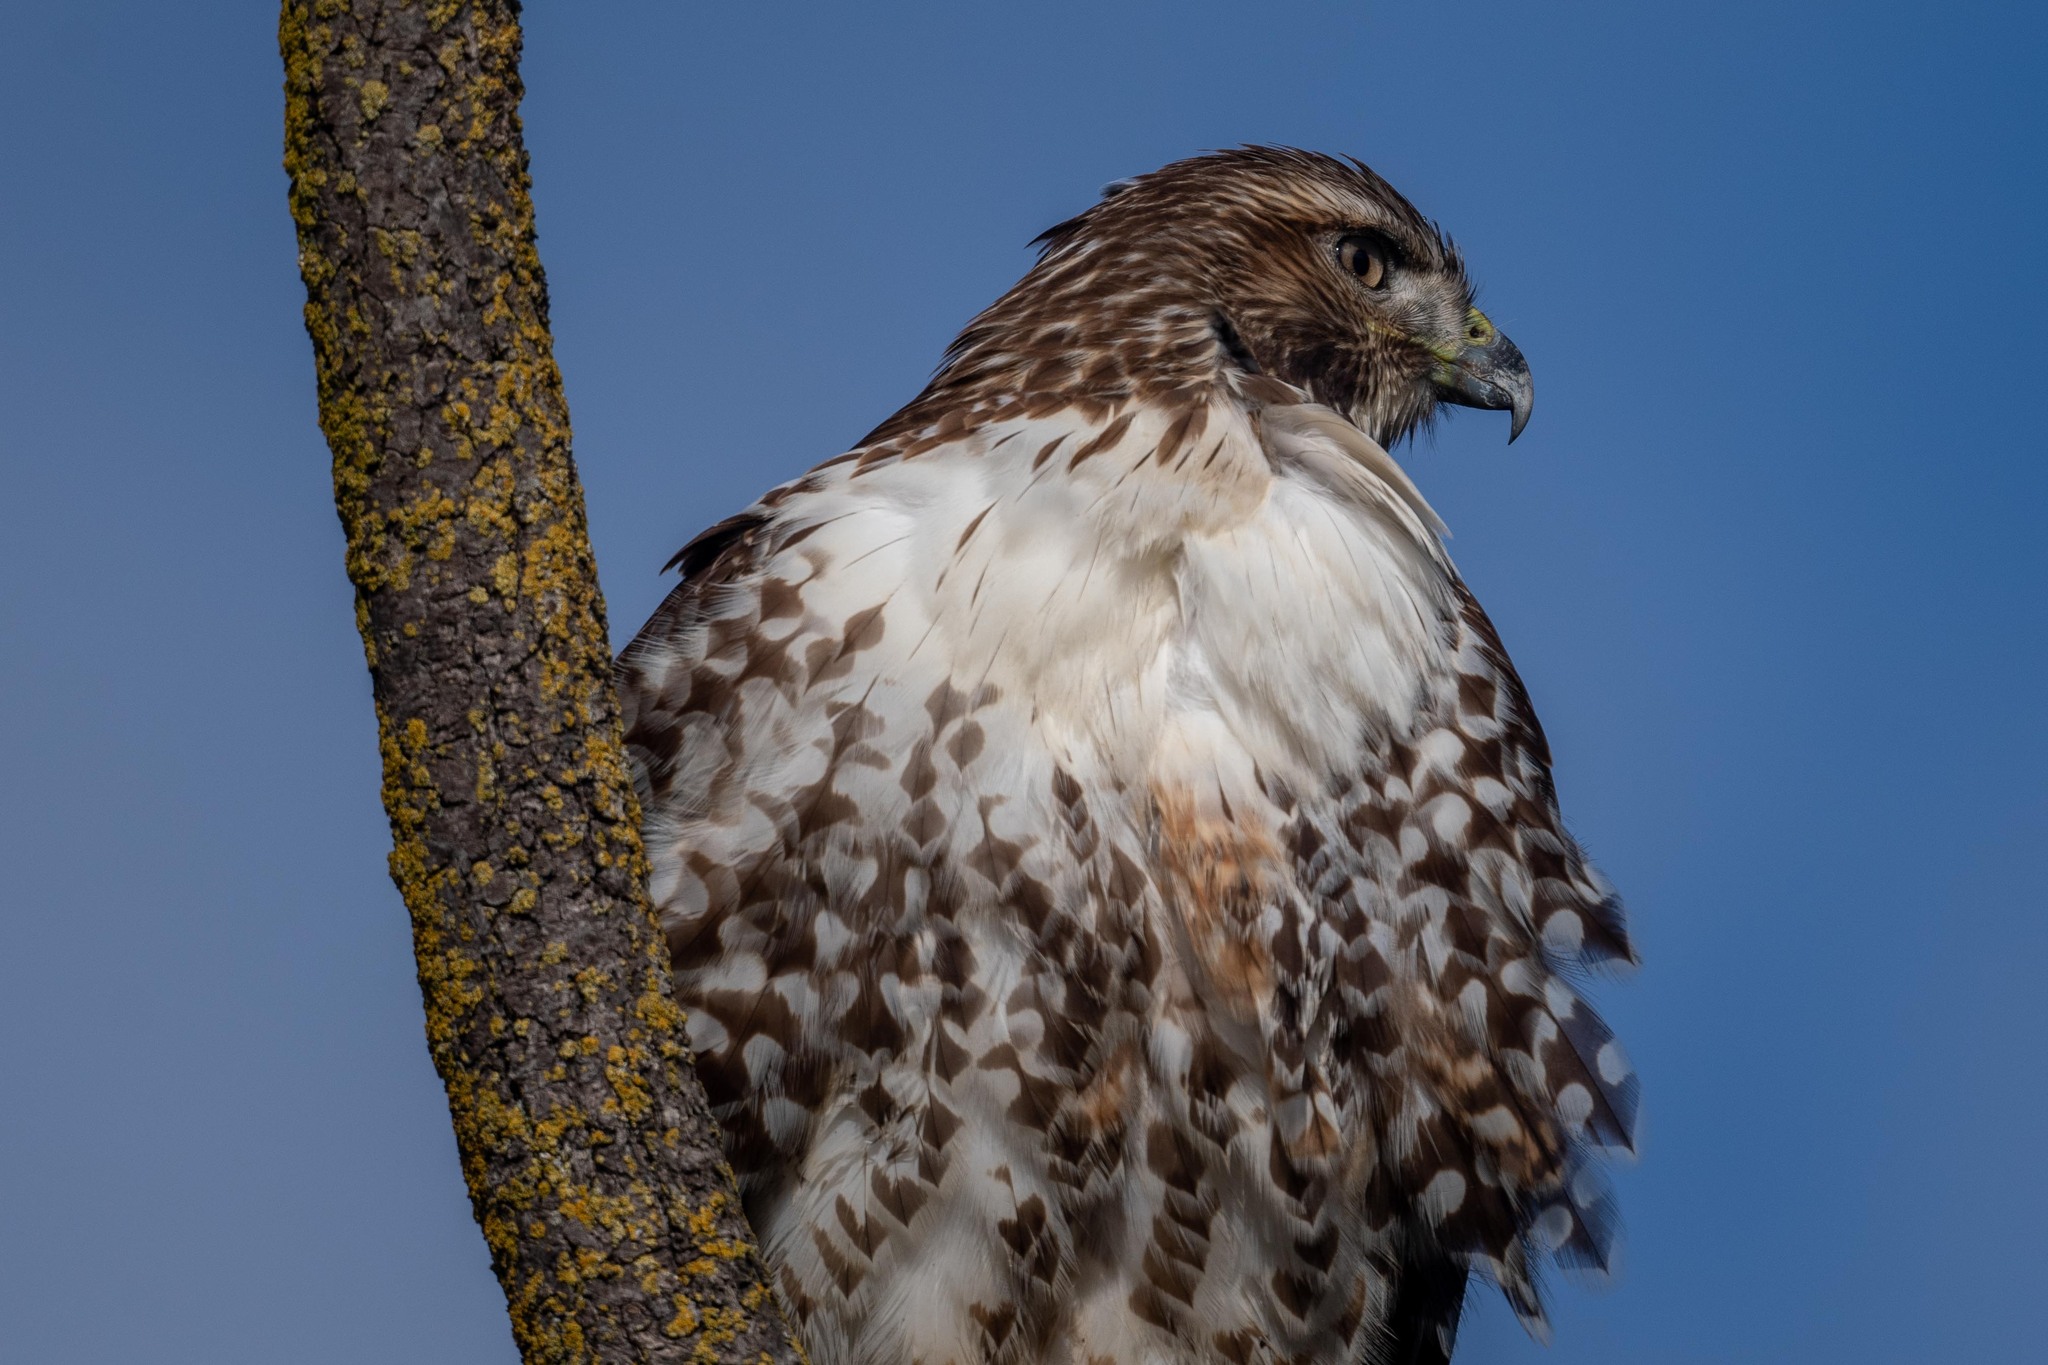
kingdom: Animalia
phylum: Chordata
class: Aves
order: Accipitriformes
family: Accipitridae
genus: Buteo
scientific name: Buteo jamaicensis
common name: Red-tailed hawk
